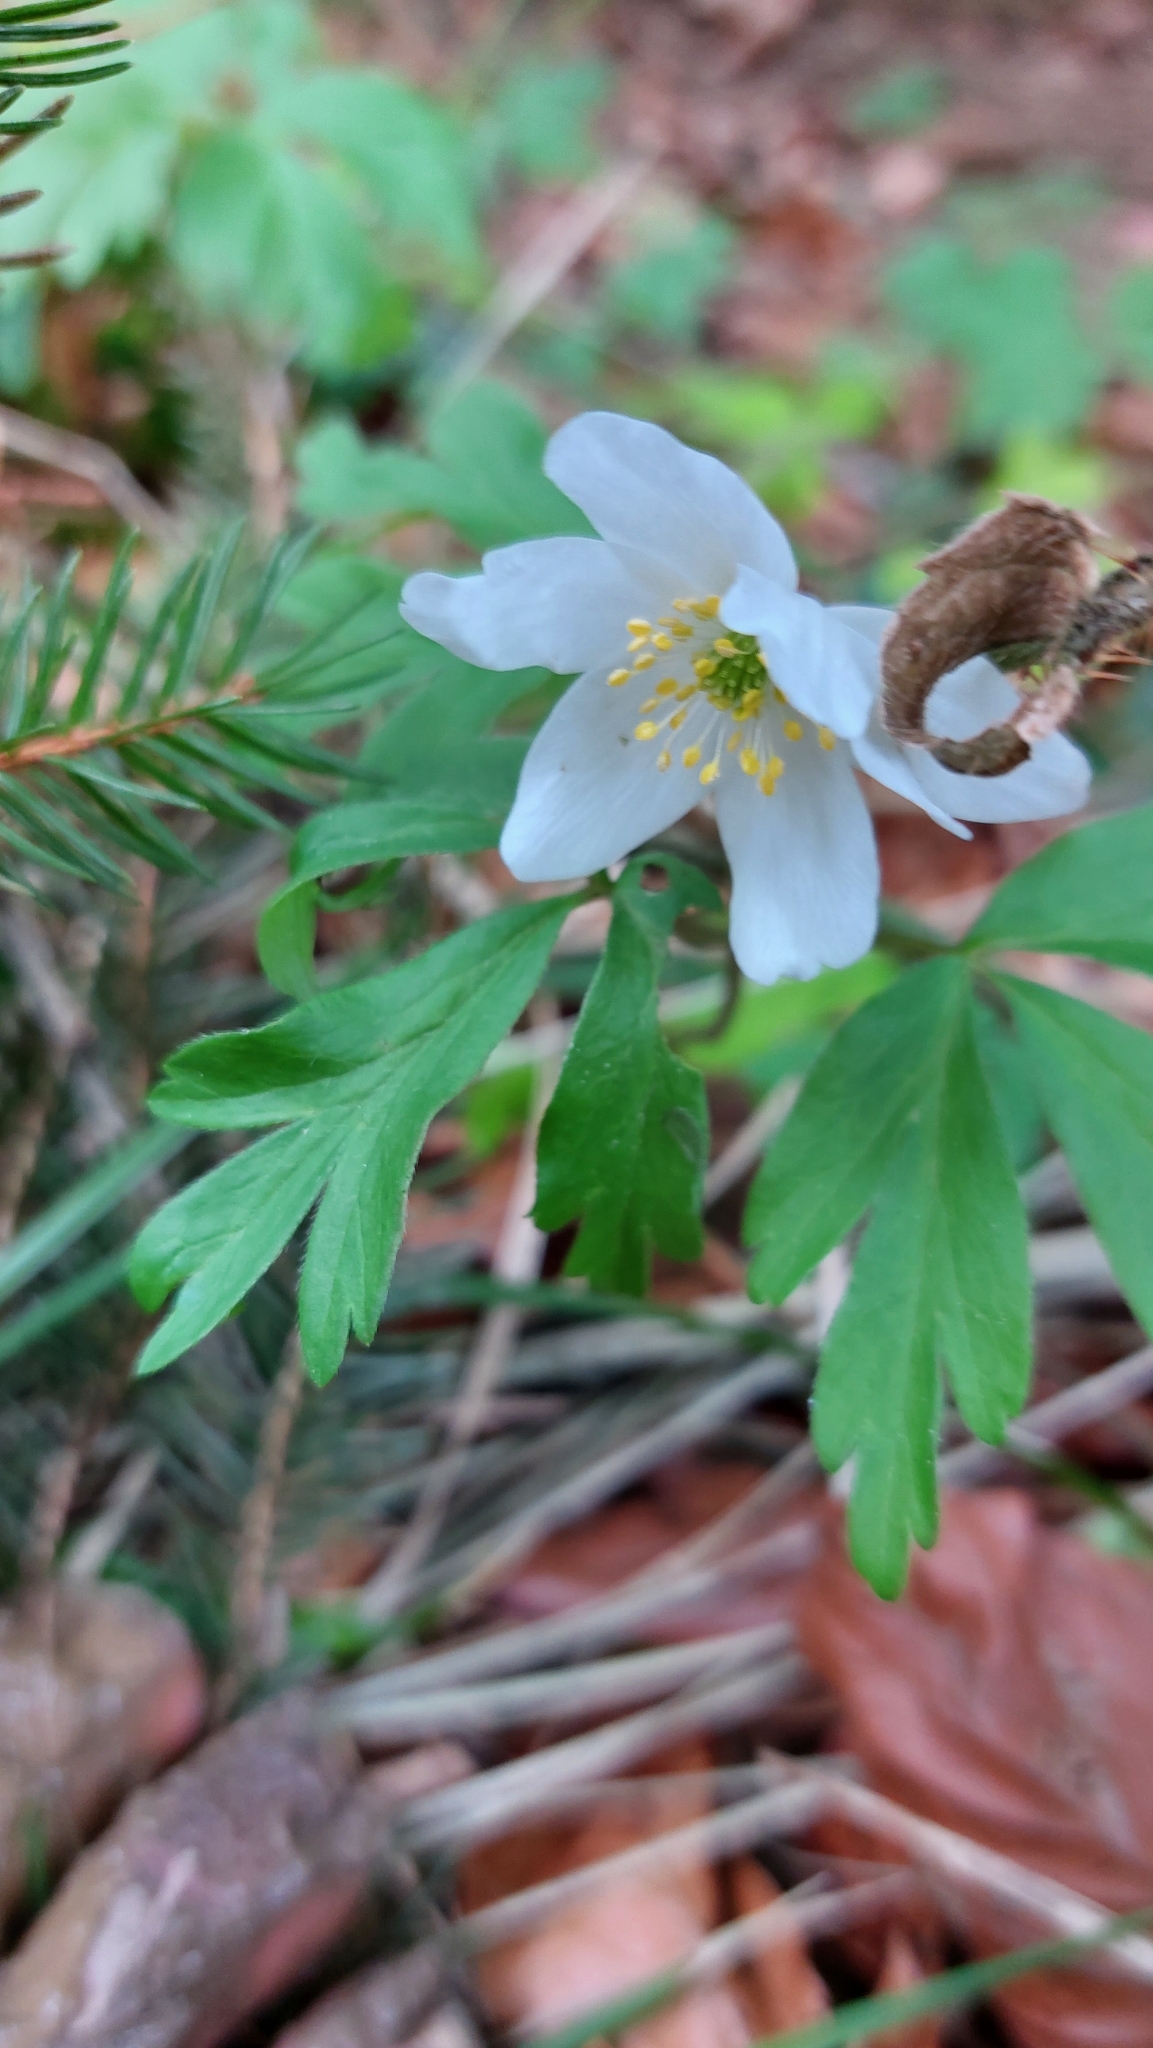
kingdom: Plantae
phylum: Tracheophyta
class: Magnoliopsida
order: Ranunculales
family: Ranunculaceae
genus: Anemone
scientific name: Anemone nemorosa
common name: Wood anemone
